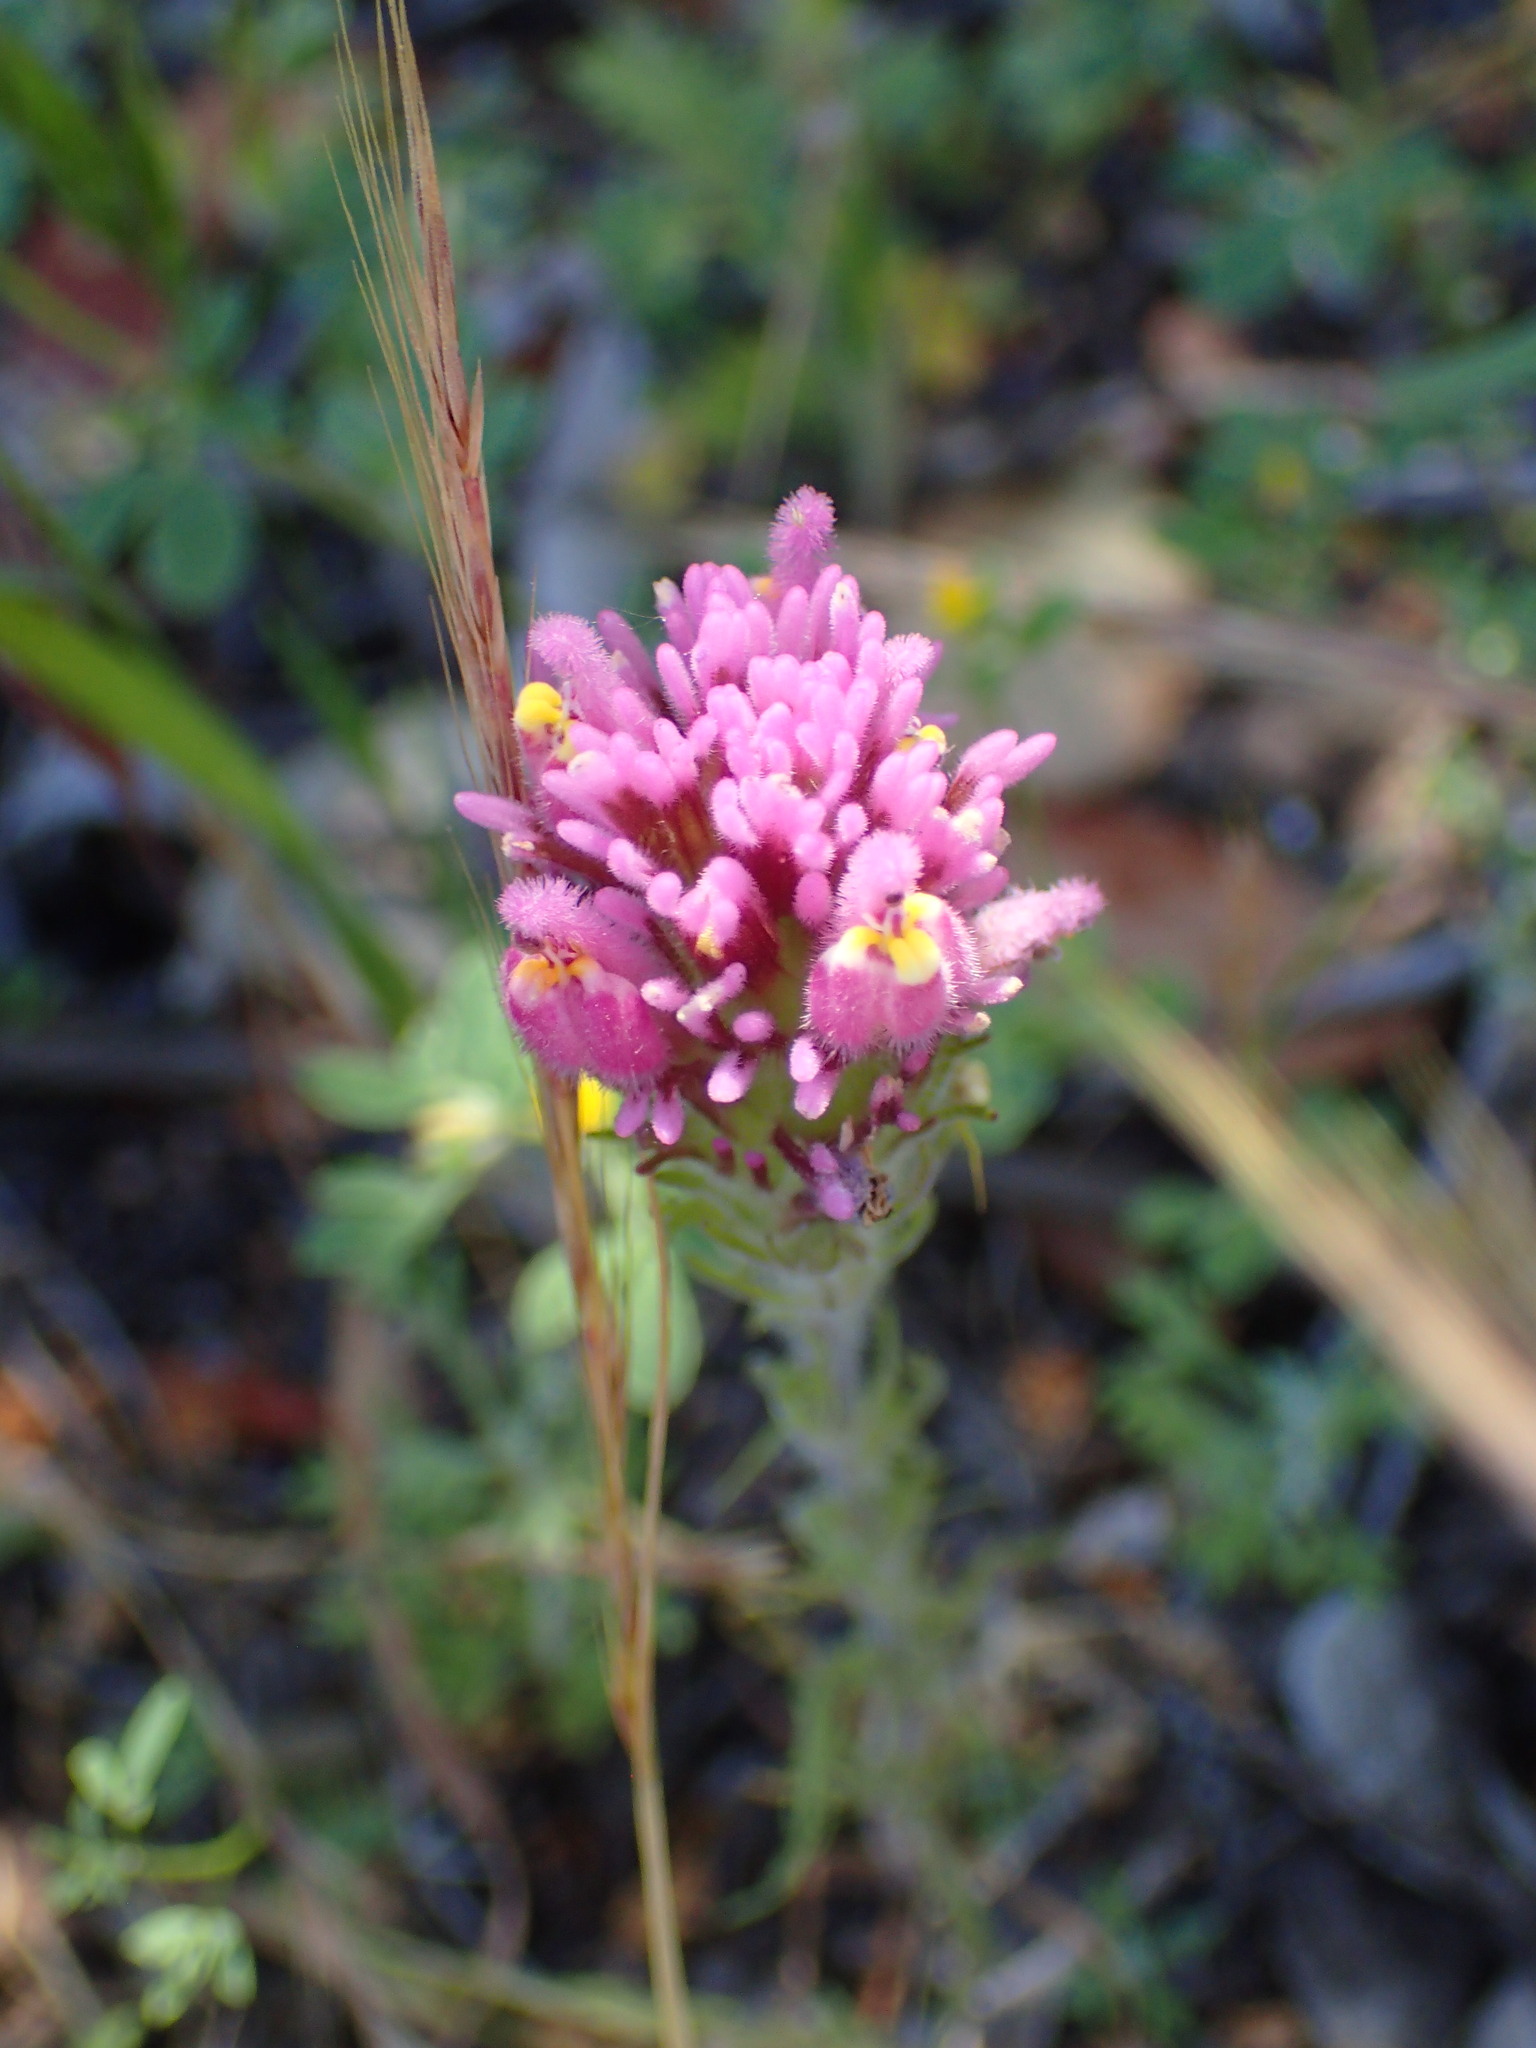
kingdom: Plantae
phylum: Tracheophyta
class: Magnoliopsida
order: Lamiales
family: Orobanchaceae
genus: Castilleja
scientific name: Castilleja exserta
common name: Purple owl-clover
